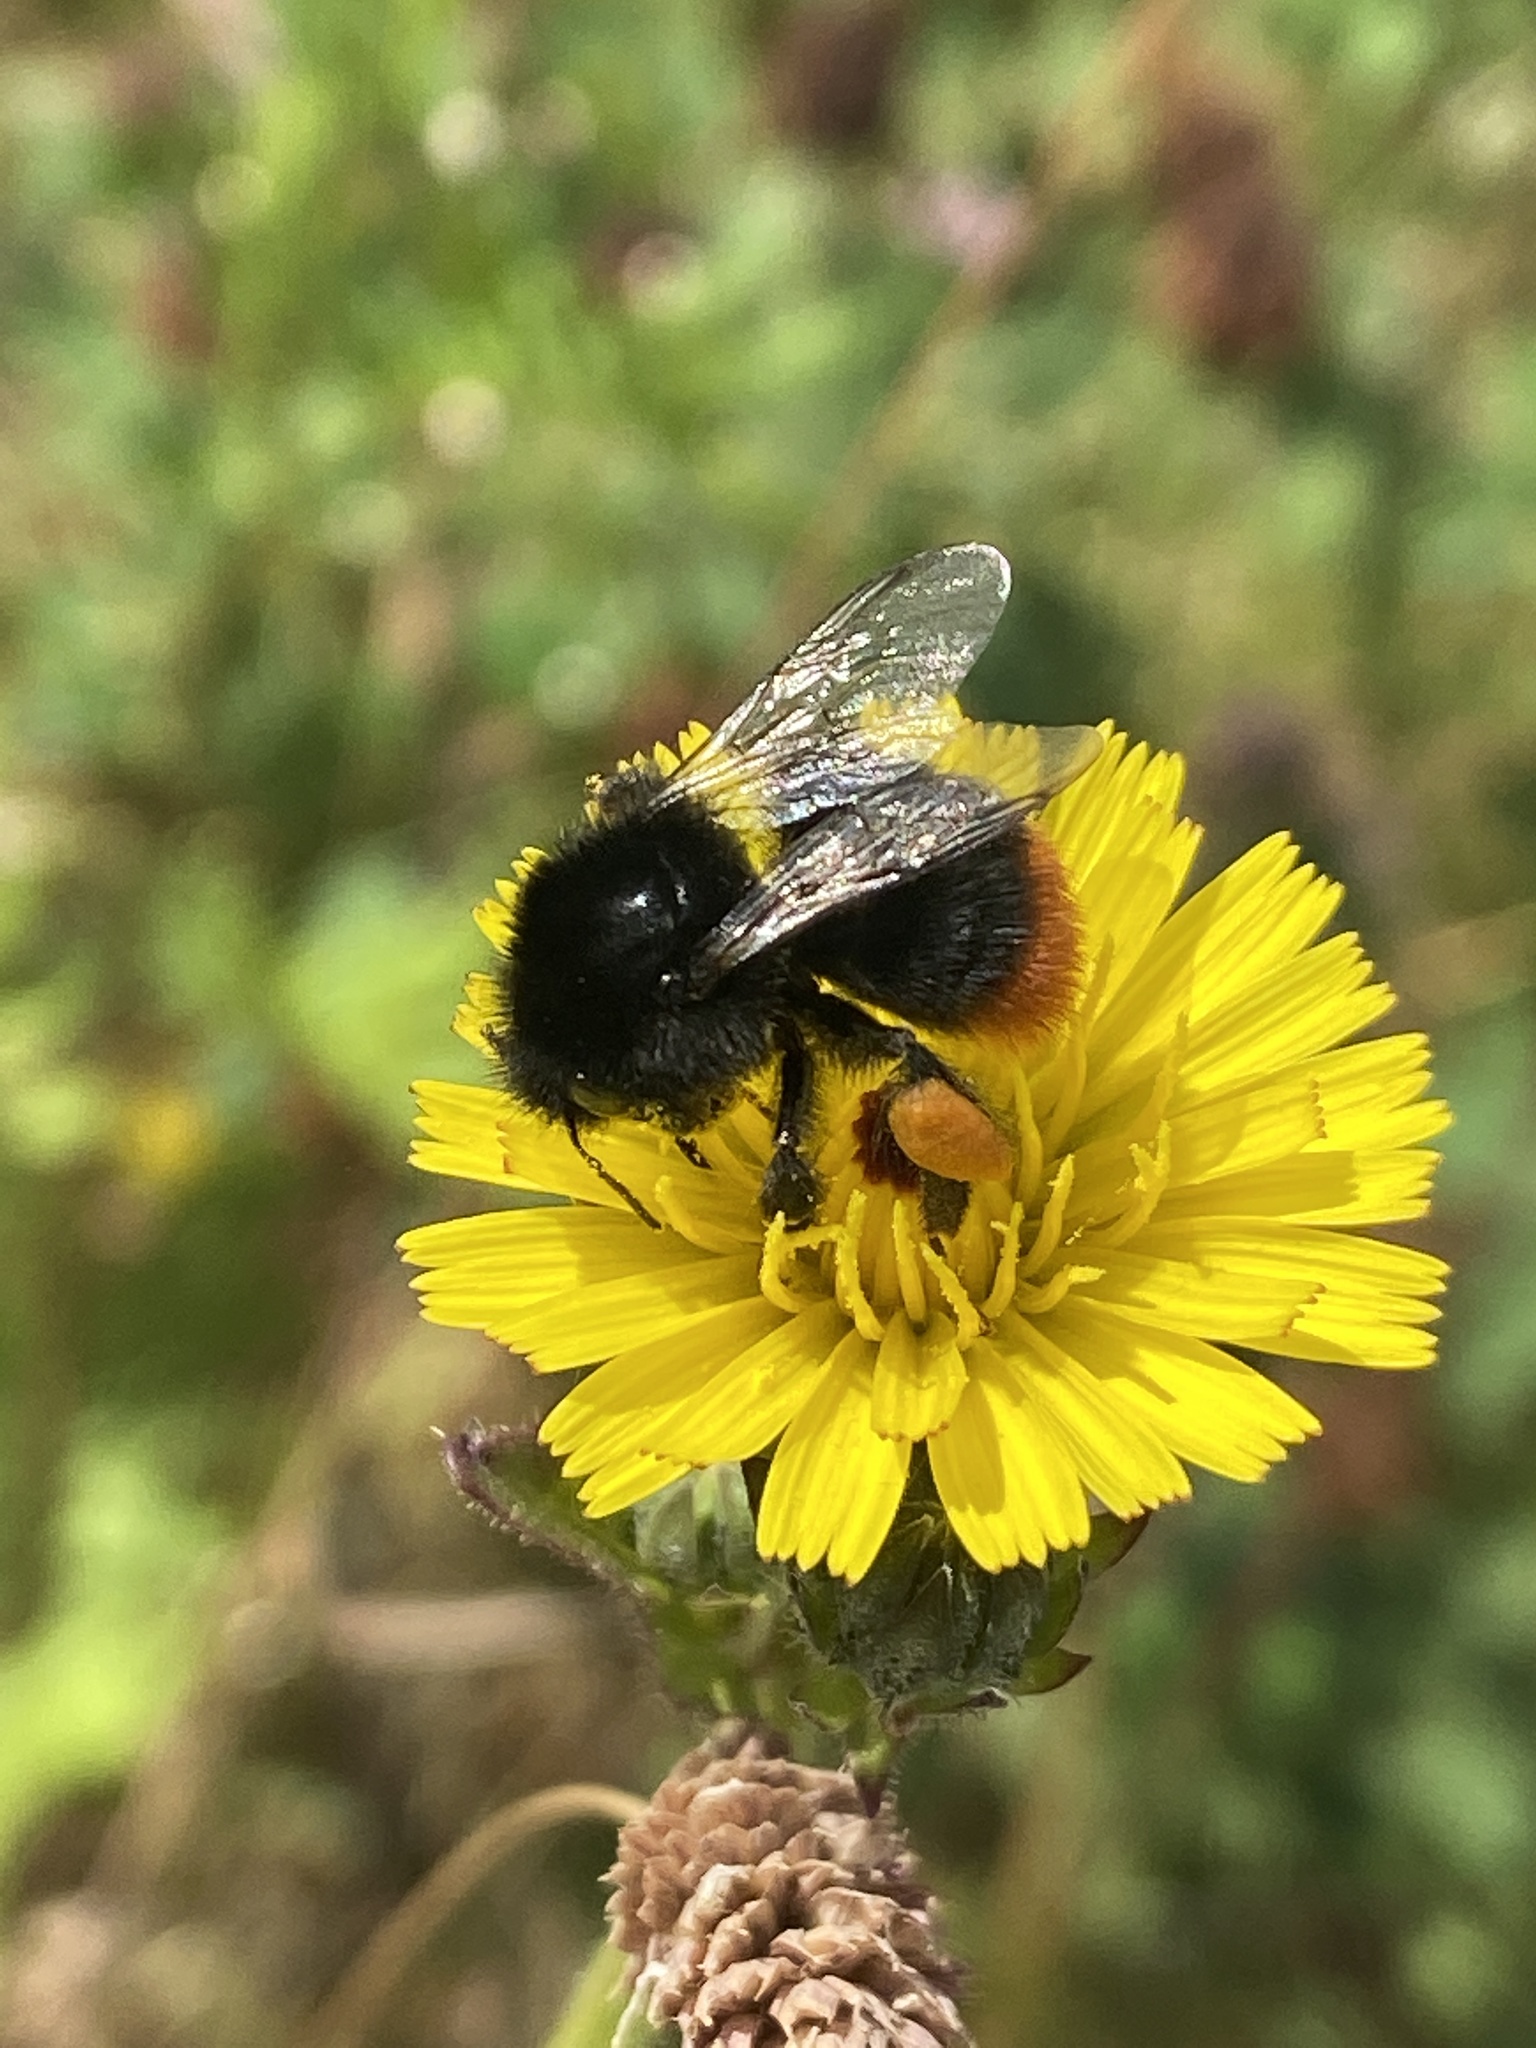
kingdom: Animalia
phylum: Arthropoda
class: Insecta
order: Hymenoptera
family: Apidae
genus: Bombus
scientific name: Bombus lapidarius
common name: Large red-tailed humble-bee
